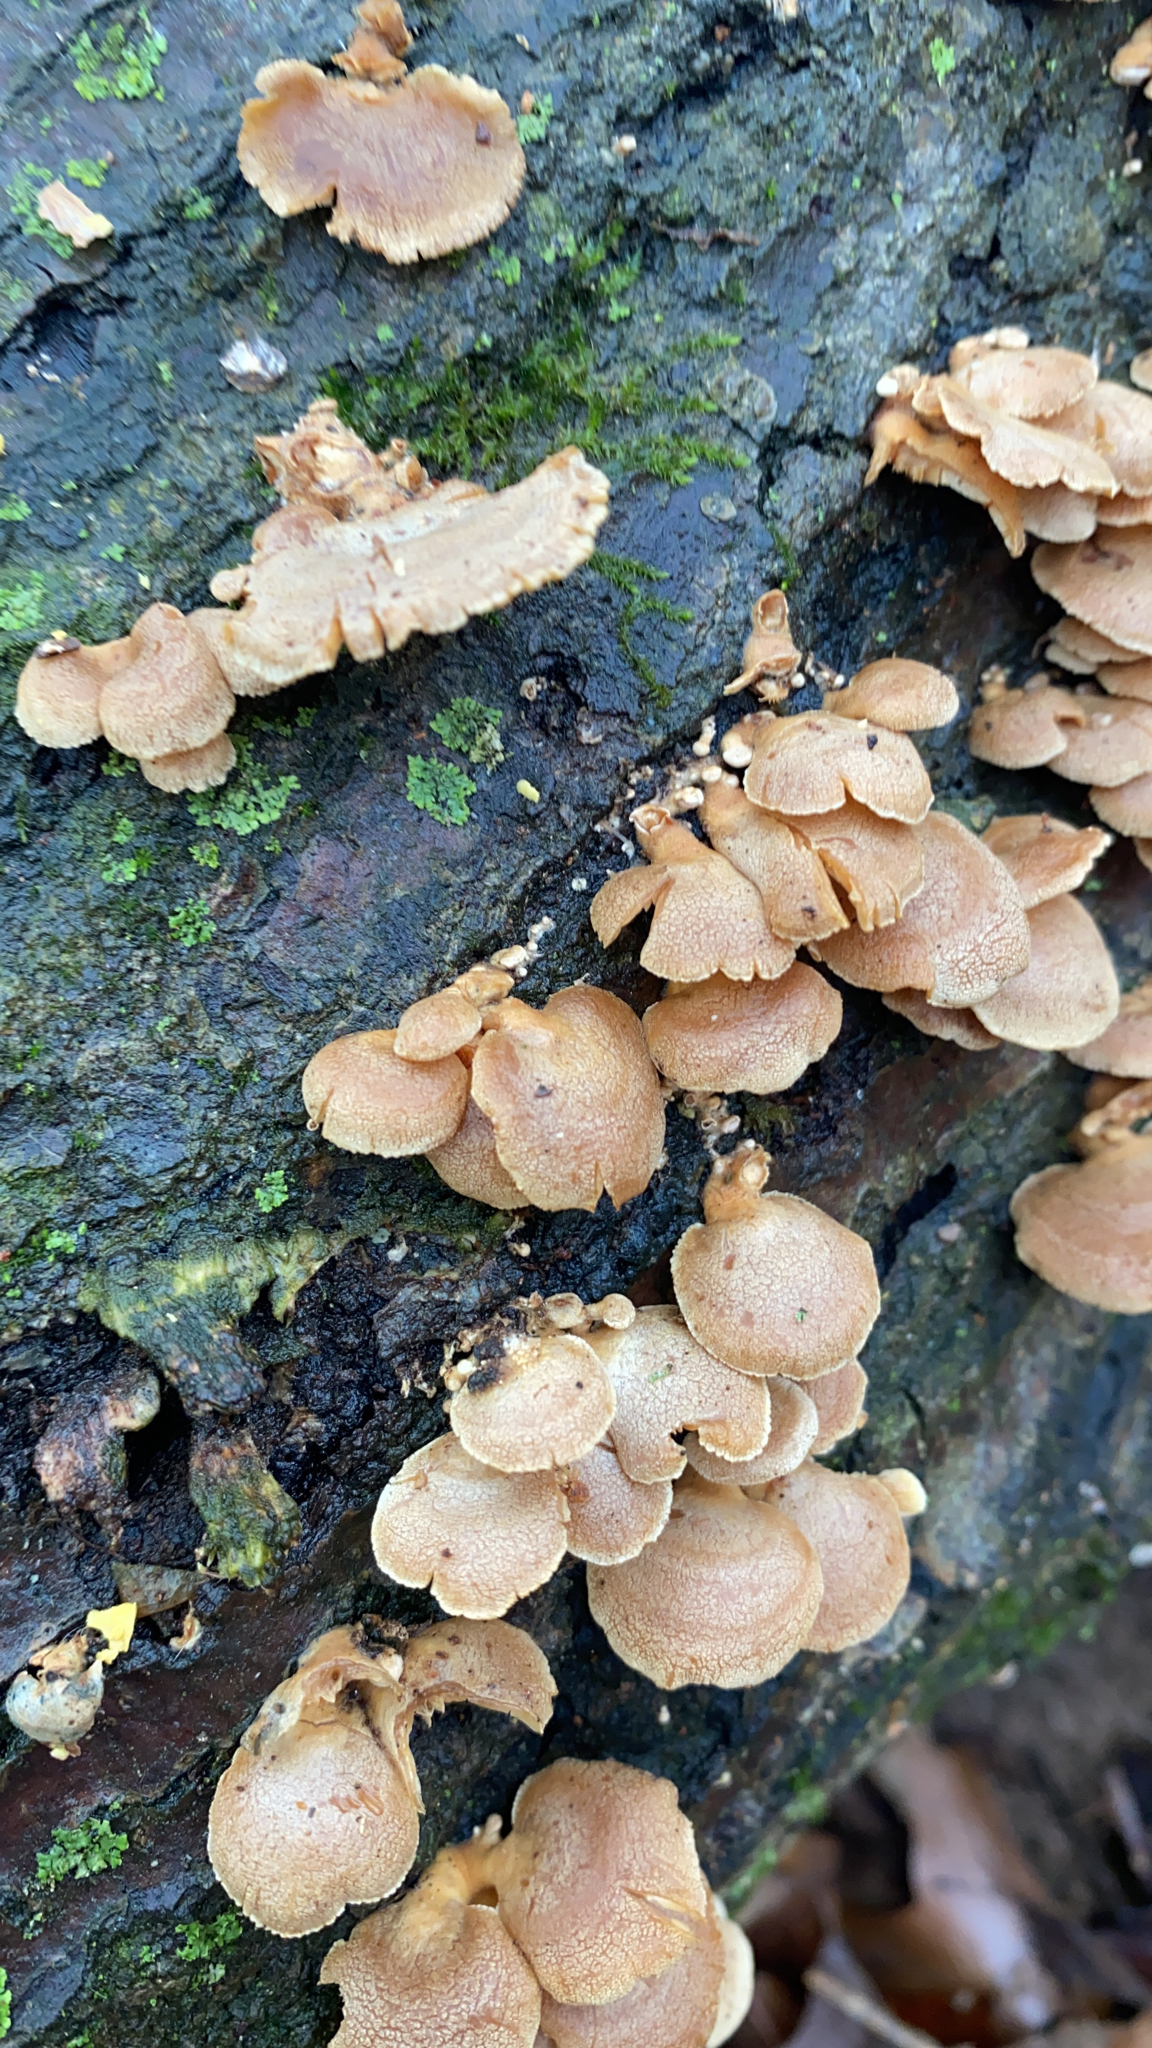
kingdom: Fungi
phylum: Basidiomycota
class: Agaricomycetes
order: Agaricales
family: Mycenaceae
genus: Panellus
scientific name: Panellus stipticus
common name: Bitter oysterling
